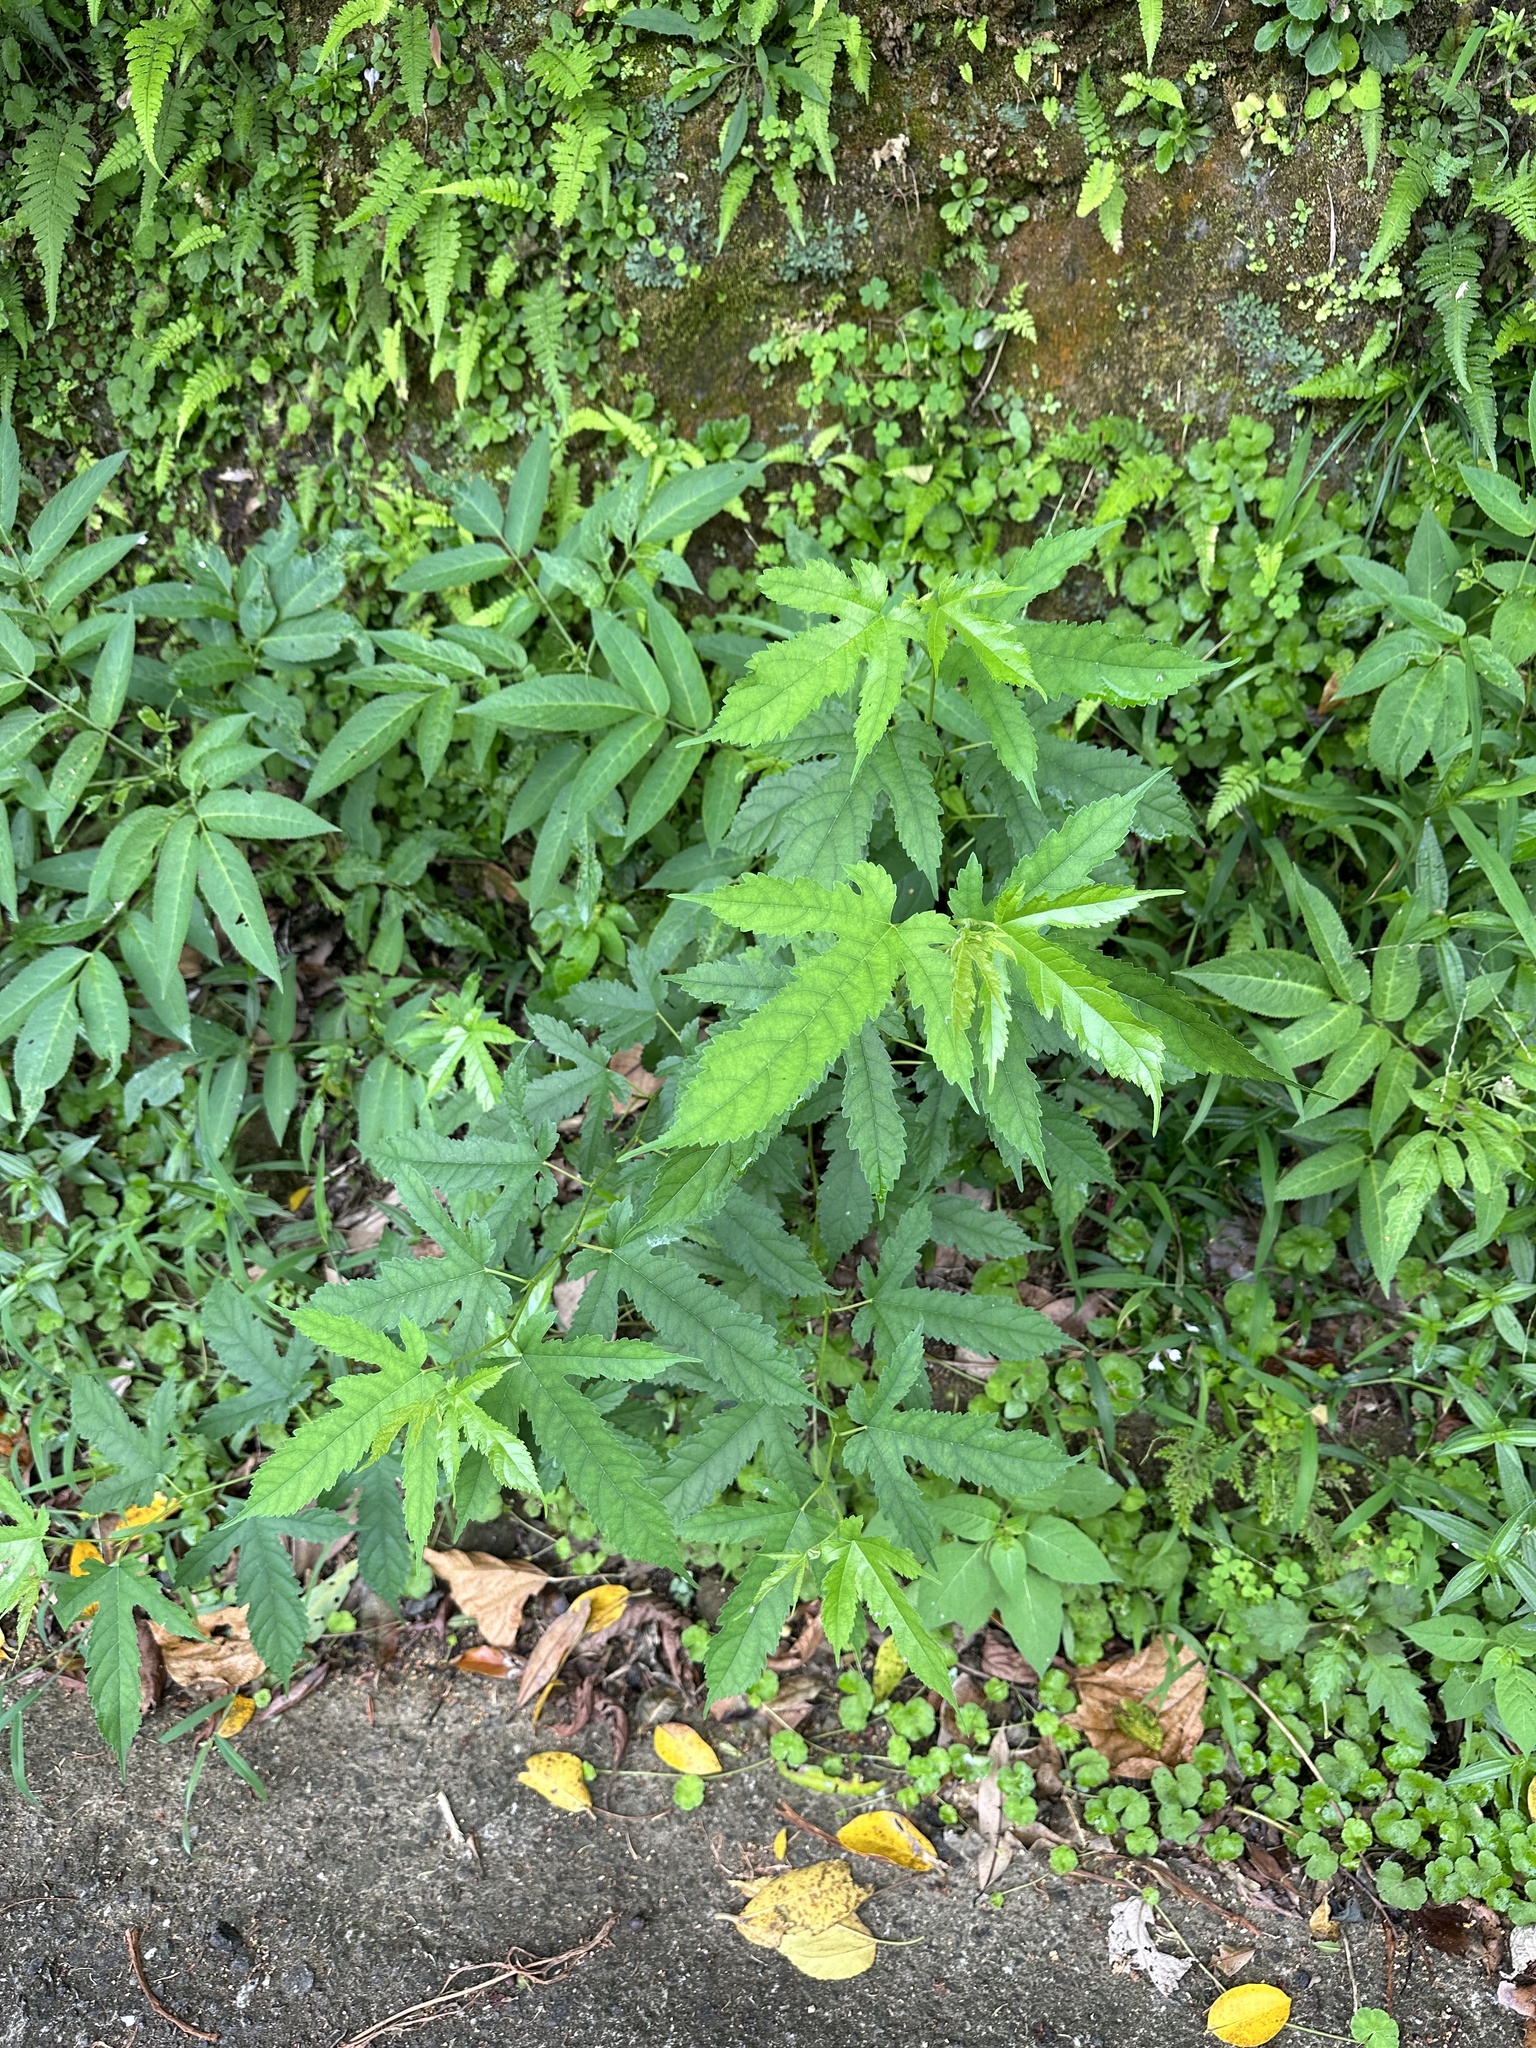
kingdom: Plantae
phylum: Tracheophyta
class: Magnoliopsida
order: Rosales
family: Moraceae
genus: Morus
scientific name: Morus indica
